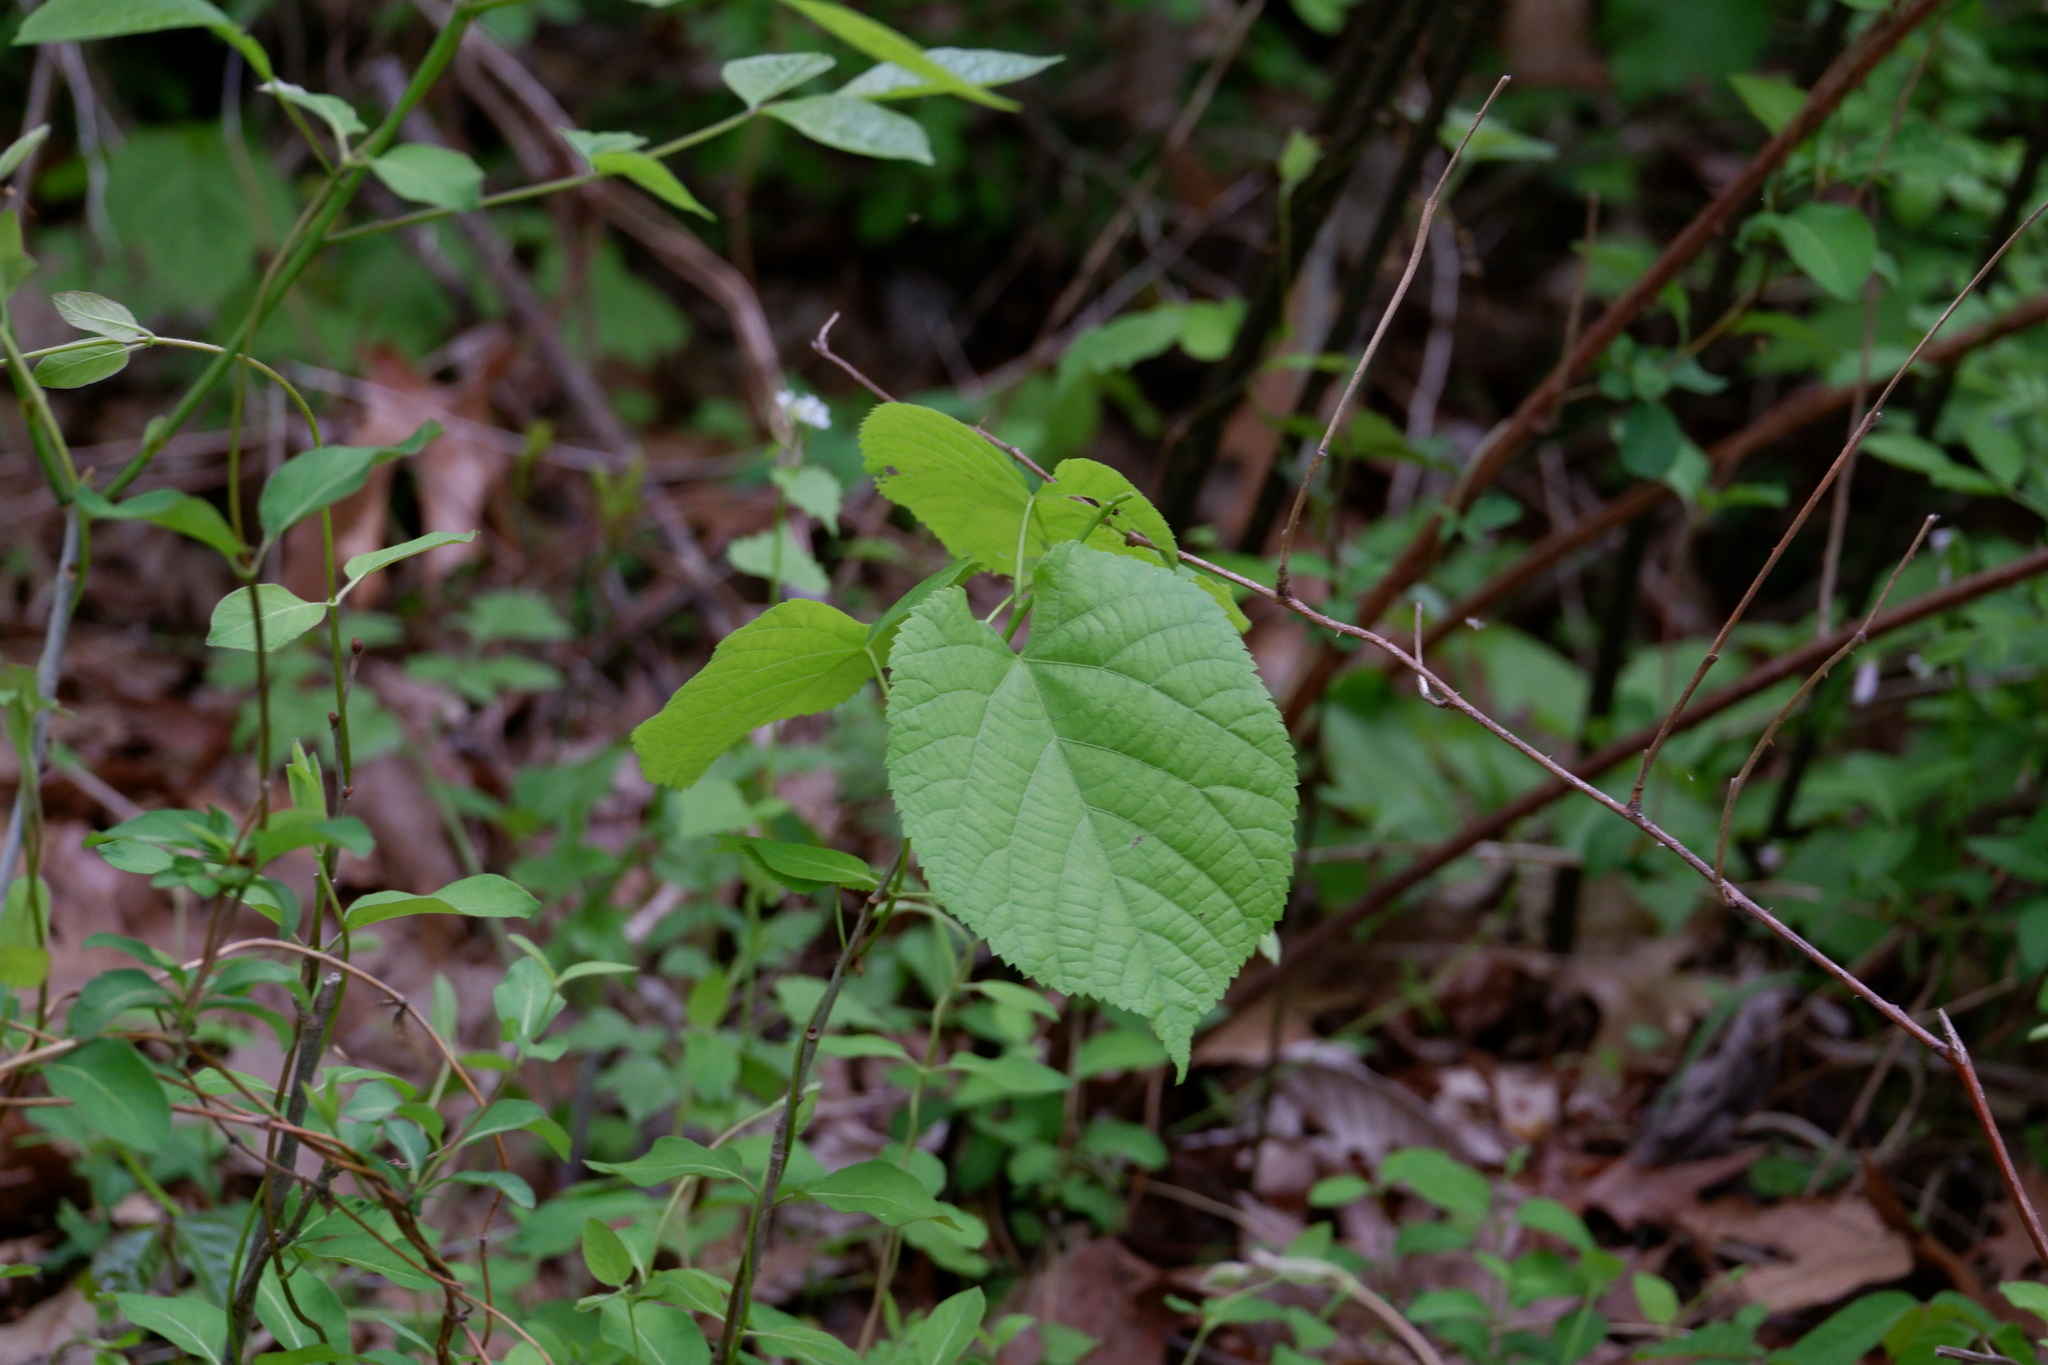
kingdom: Plantae
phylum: Tracheophyta
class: Magnoliopsida
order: Malvales
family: Malvaceae
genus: Tilia
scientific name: Tilia americana
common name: Basswood
